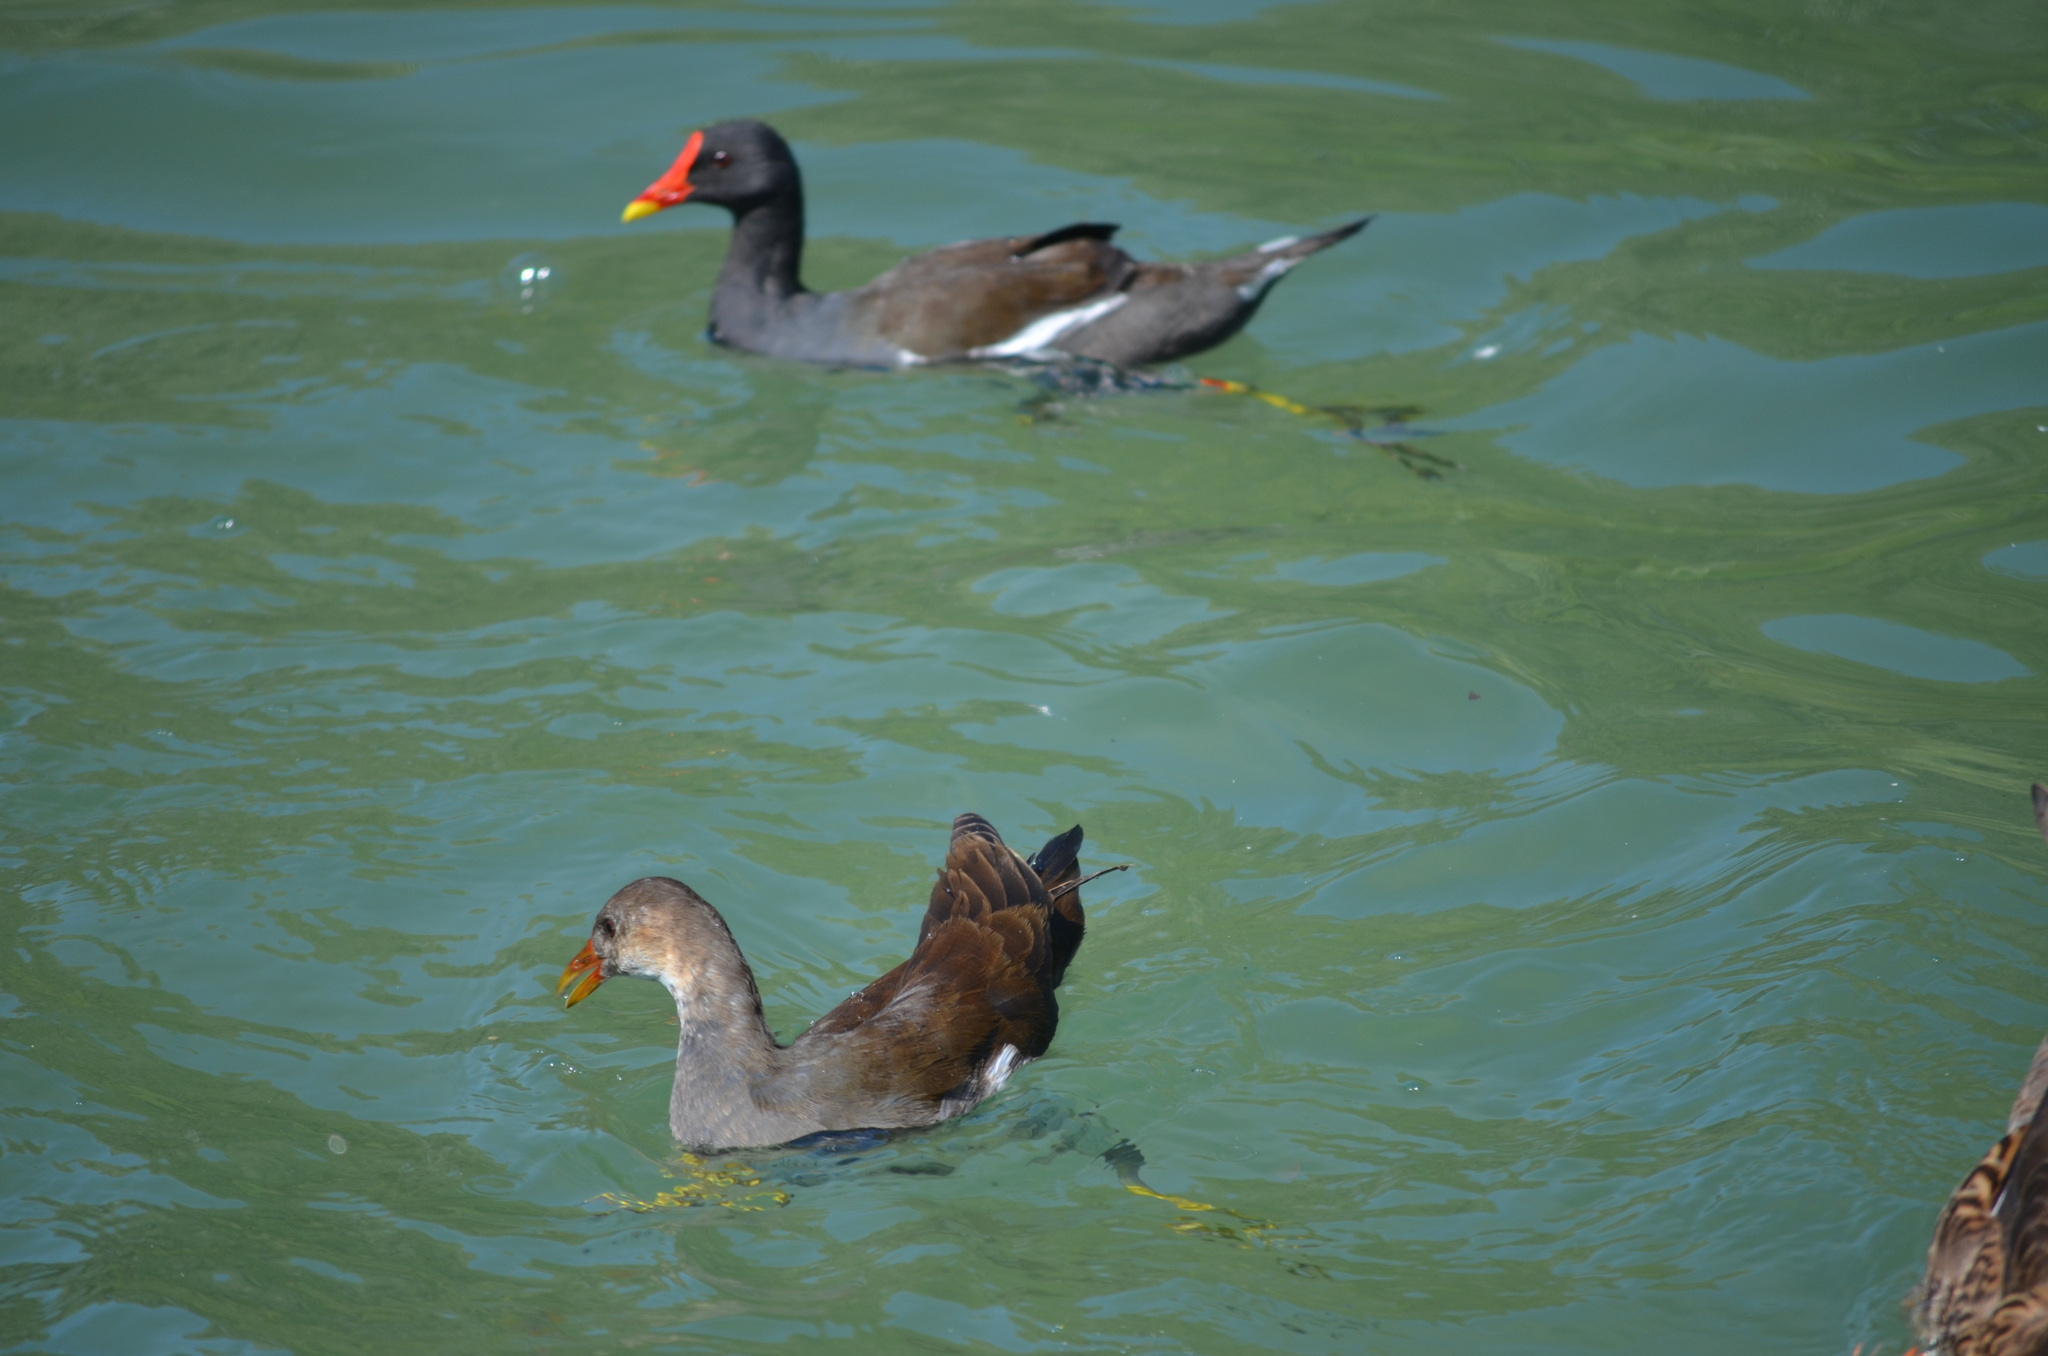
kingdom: Animalia
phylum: Chordata
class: Aves
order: Gruiformes
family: Rallidae
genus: Gallinula
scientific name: Gallinula chloropus
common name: Common moorhen
